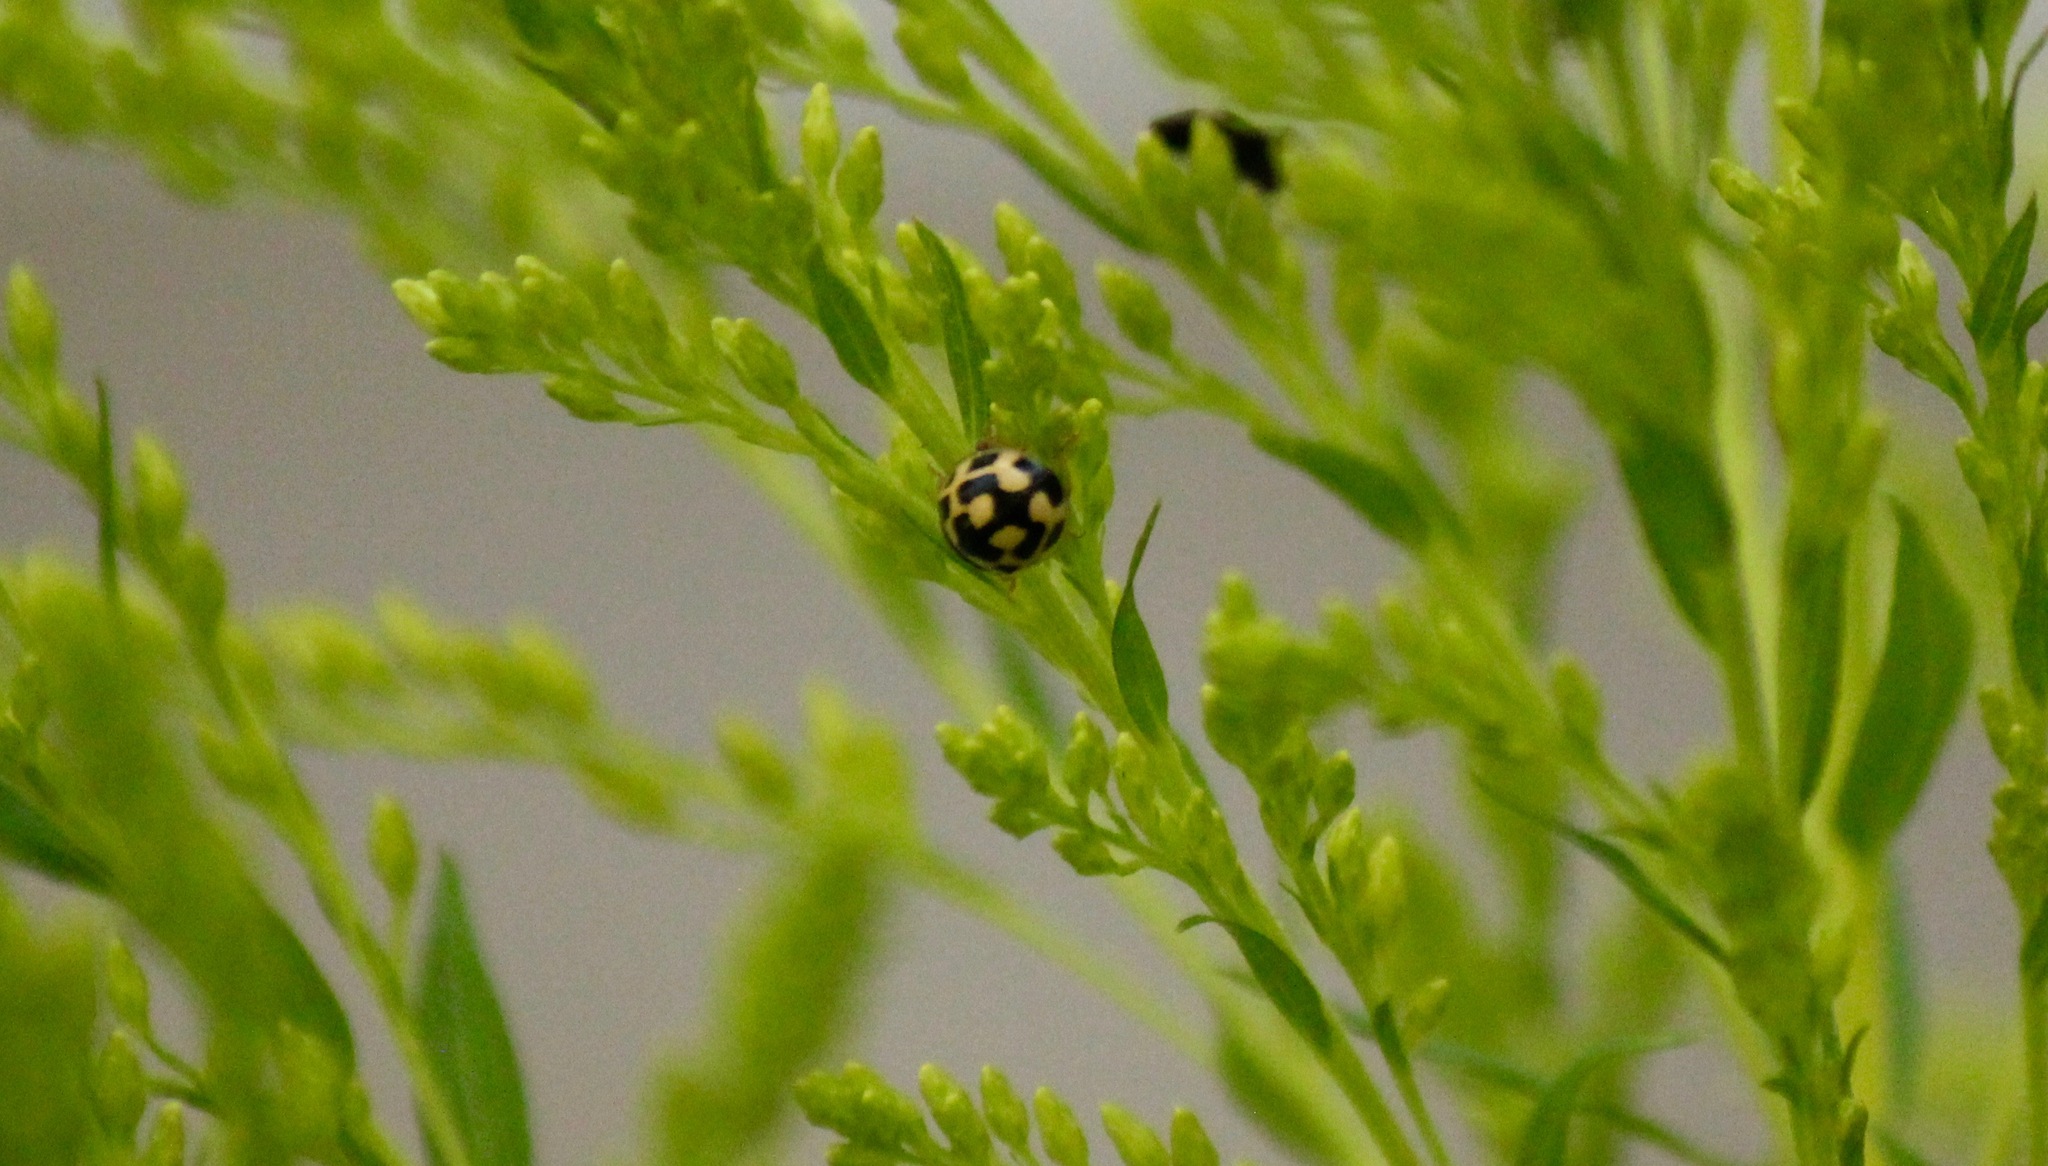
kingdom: Animalia
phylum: Arthropoda
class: Insecta
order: Coleoptera
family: Coccinellidae
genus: Propylaea
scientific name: Propylaea quatuordecimpunctata
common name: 14-spotted ladybird beetle
